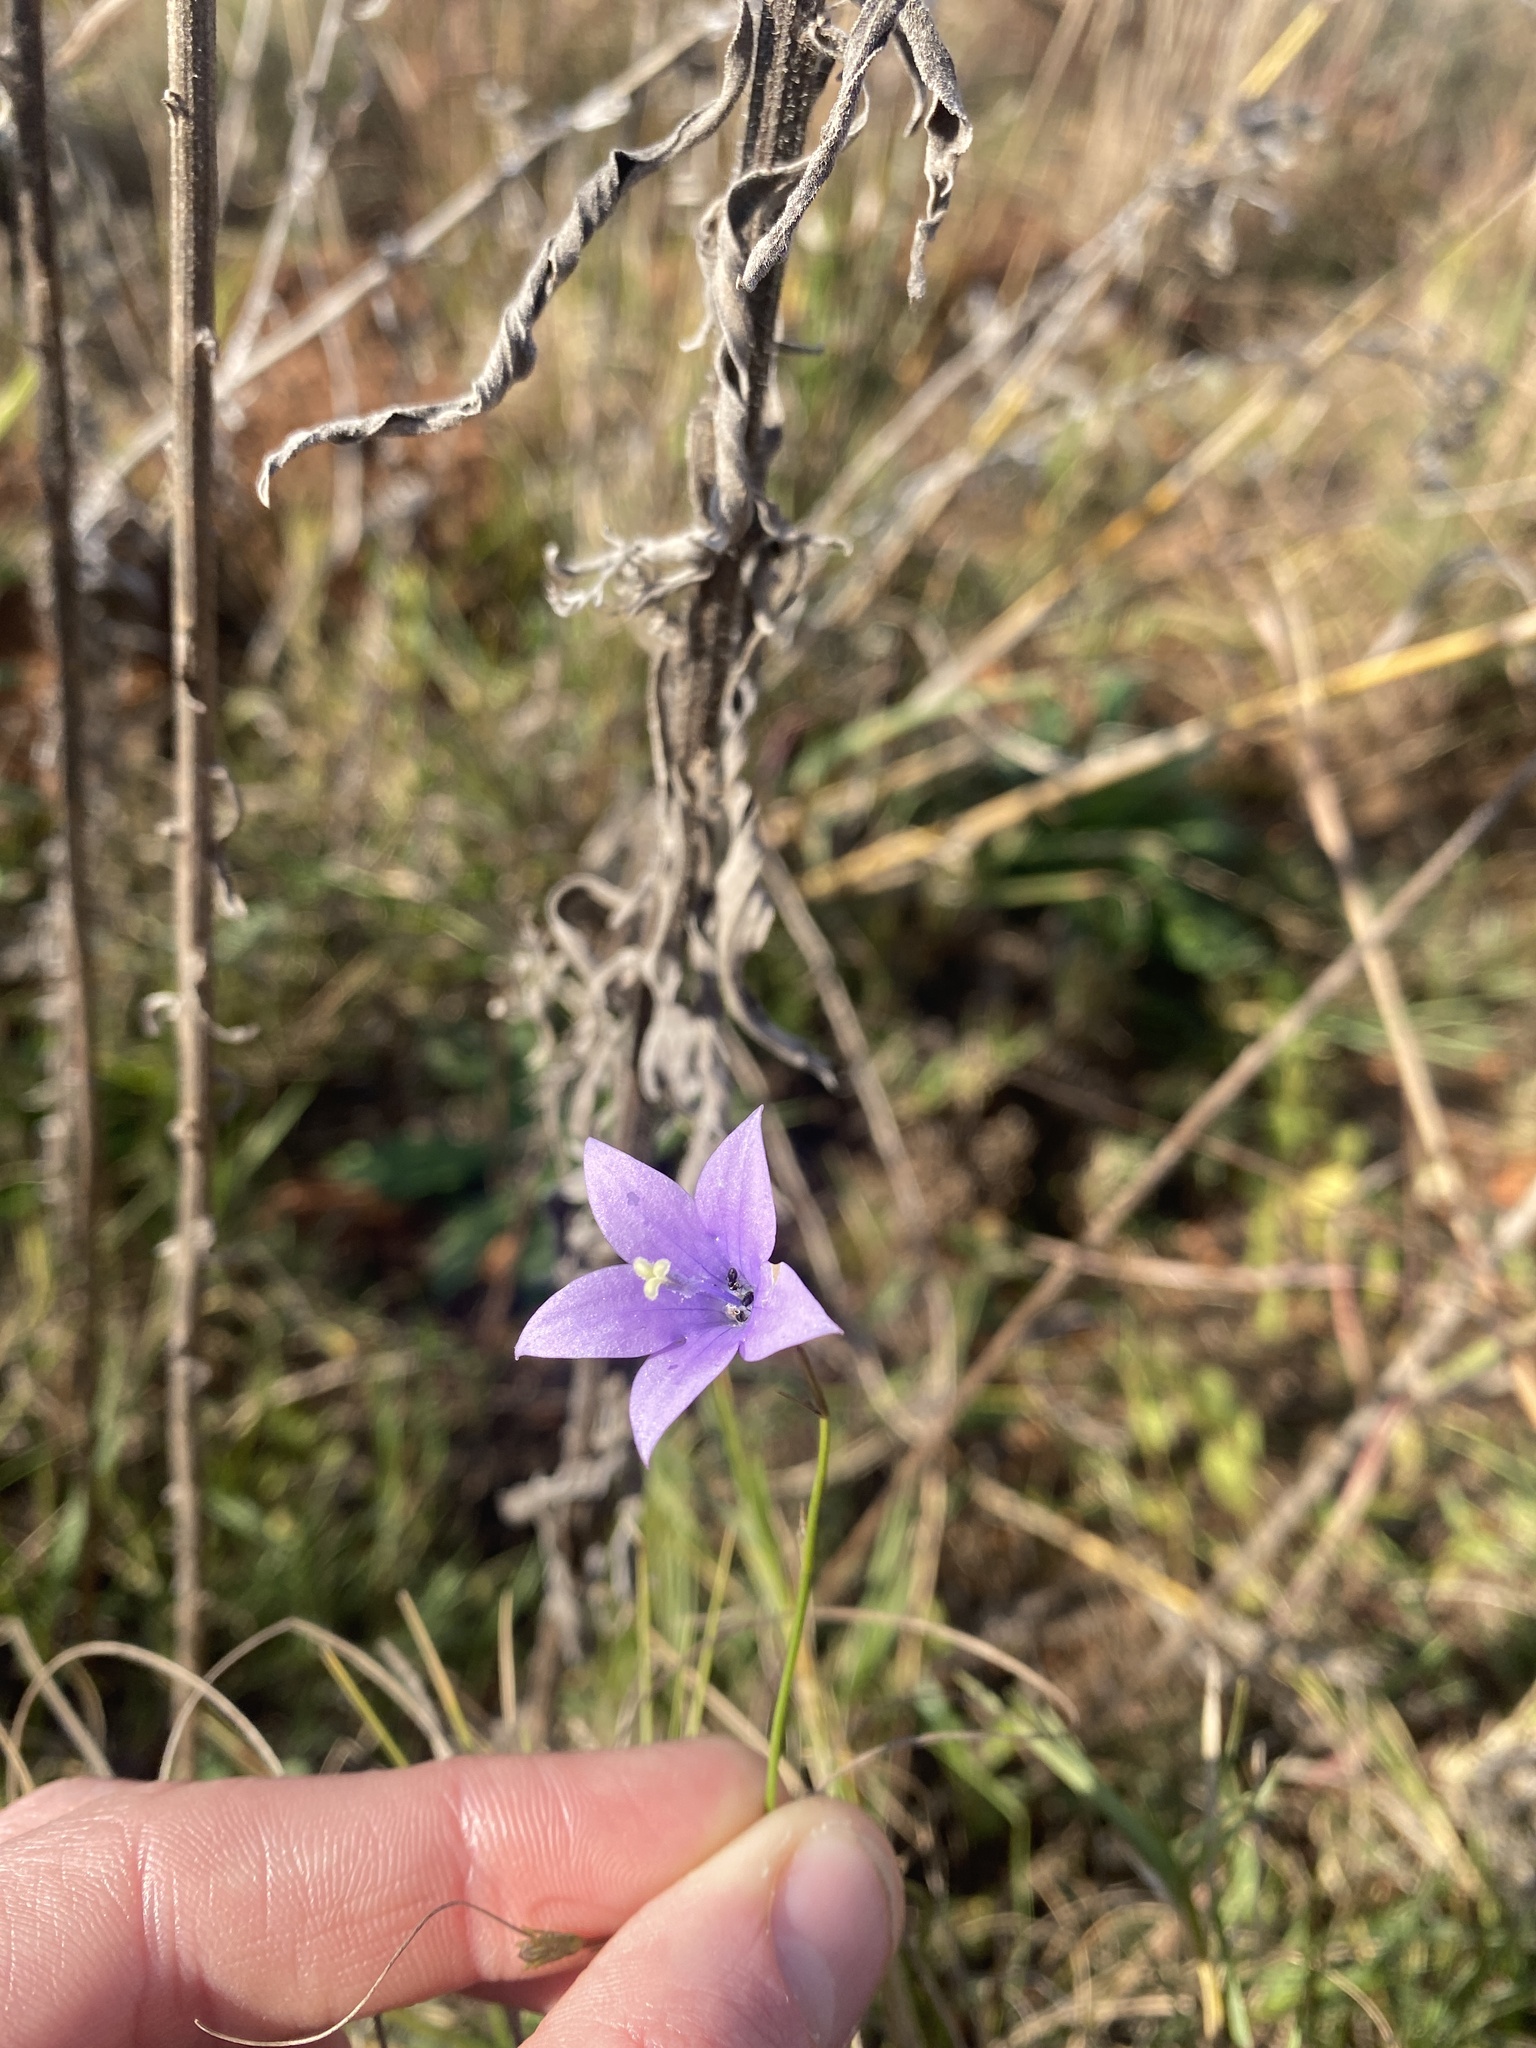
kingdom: Plantae
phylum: Tracheophyta
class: Magnoliopsida
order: Asterales
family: Campanulaceae
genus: Wahlenbergia
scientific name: Wahlenbergia undulata
